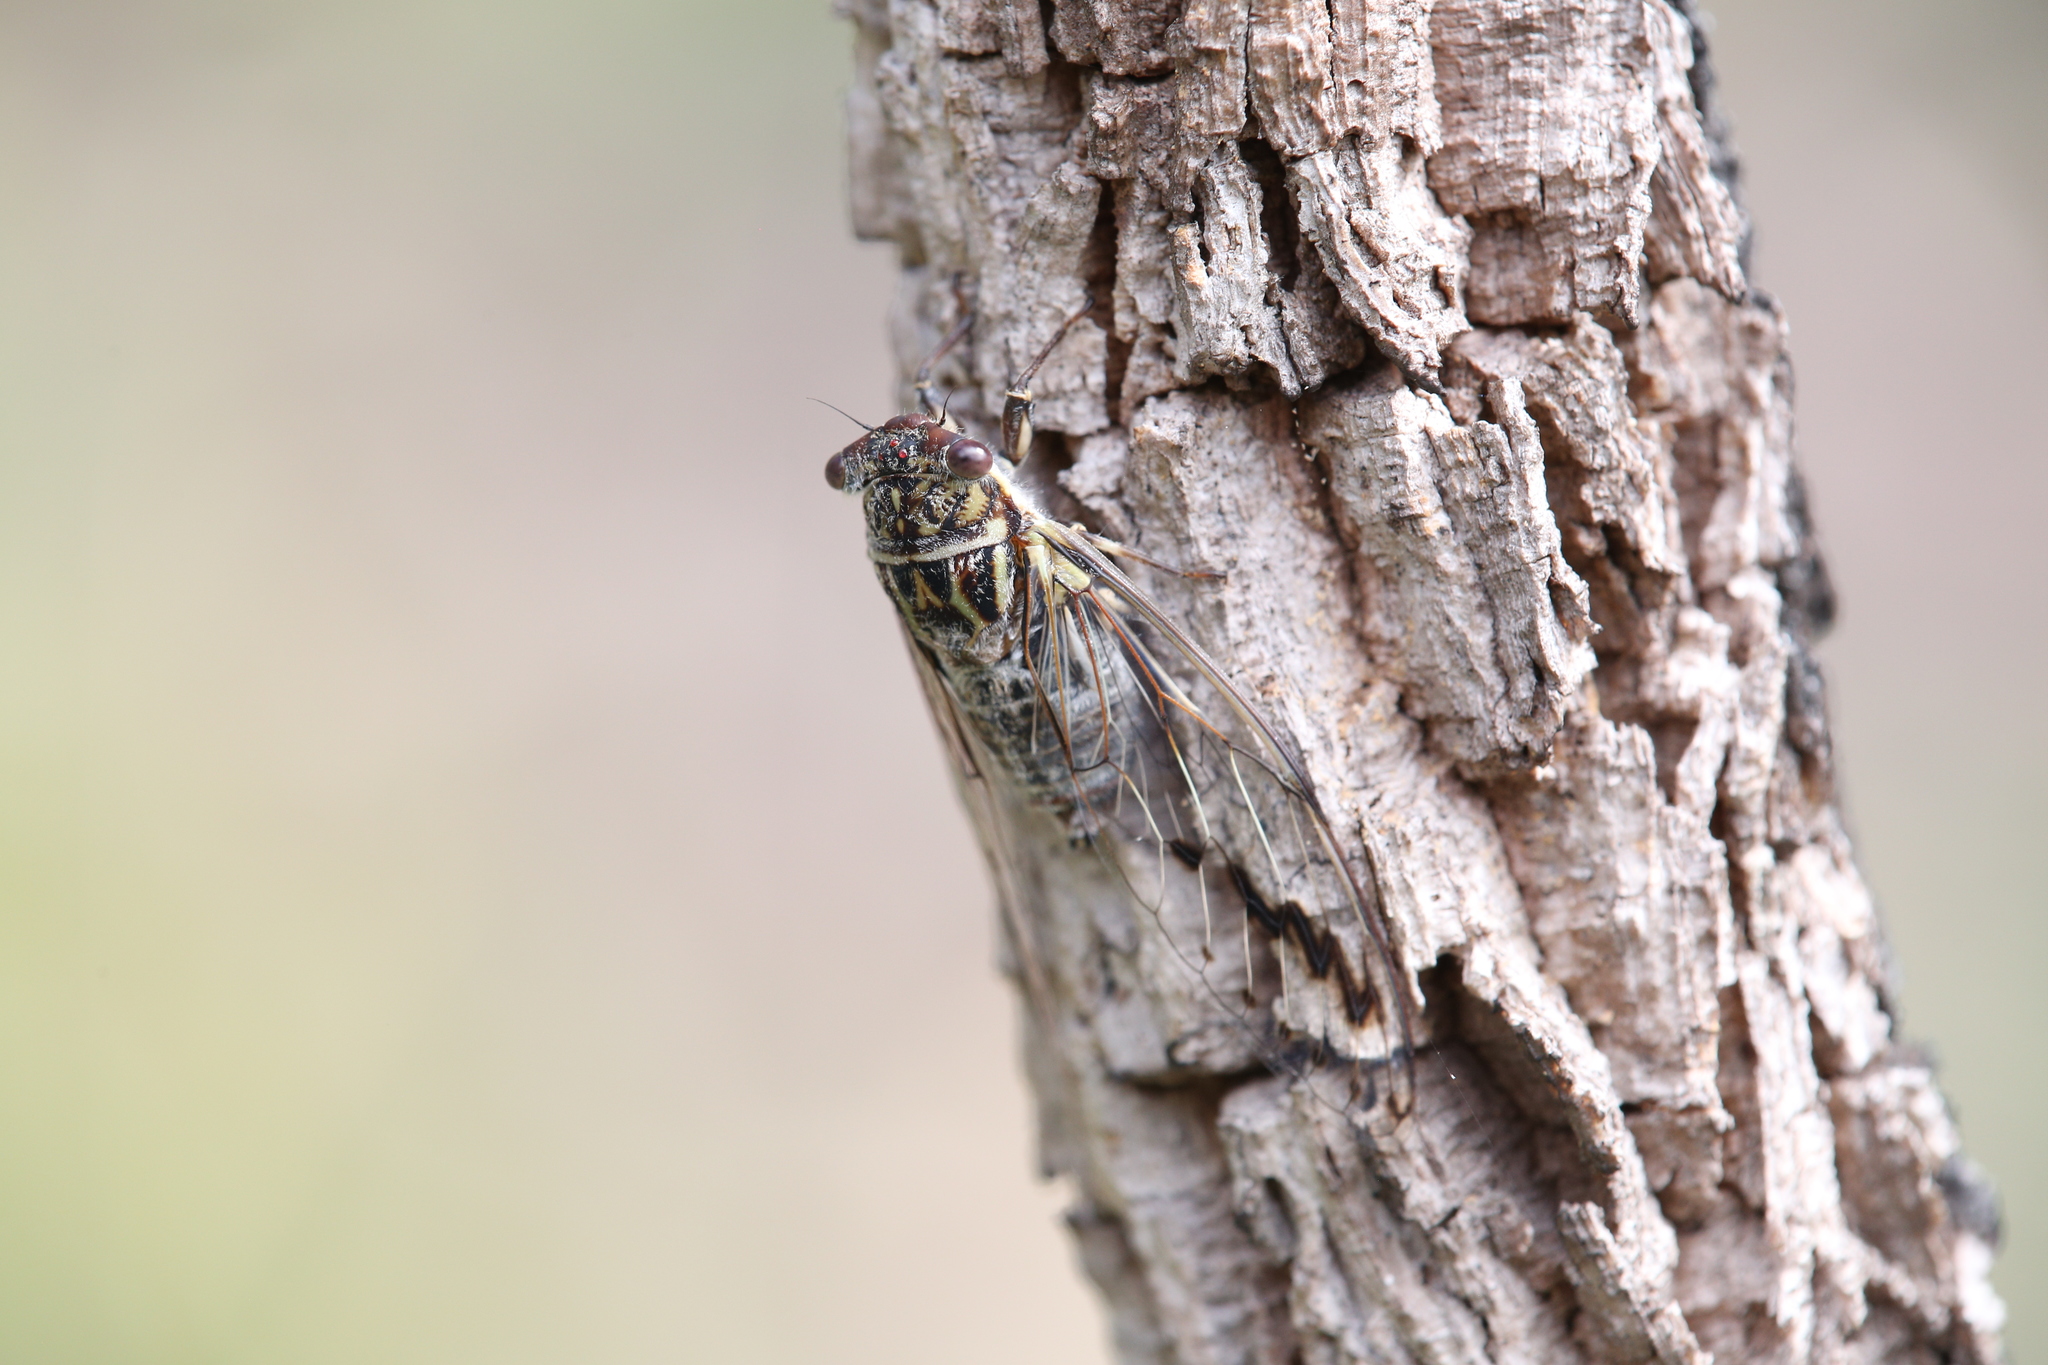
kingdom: Animalia
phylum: Arthropoda
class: Insecta
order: Hemiptera
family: Cicadidae
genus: Illyria
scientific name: Illyria burkei
